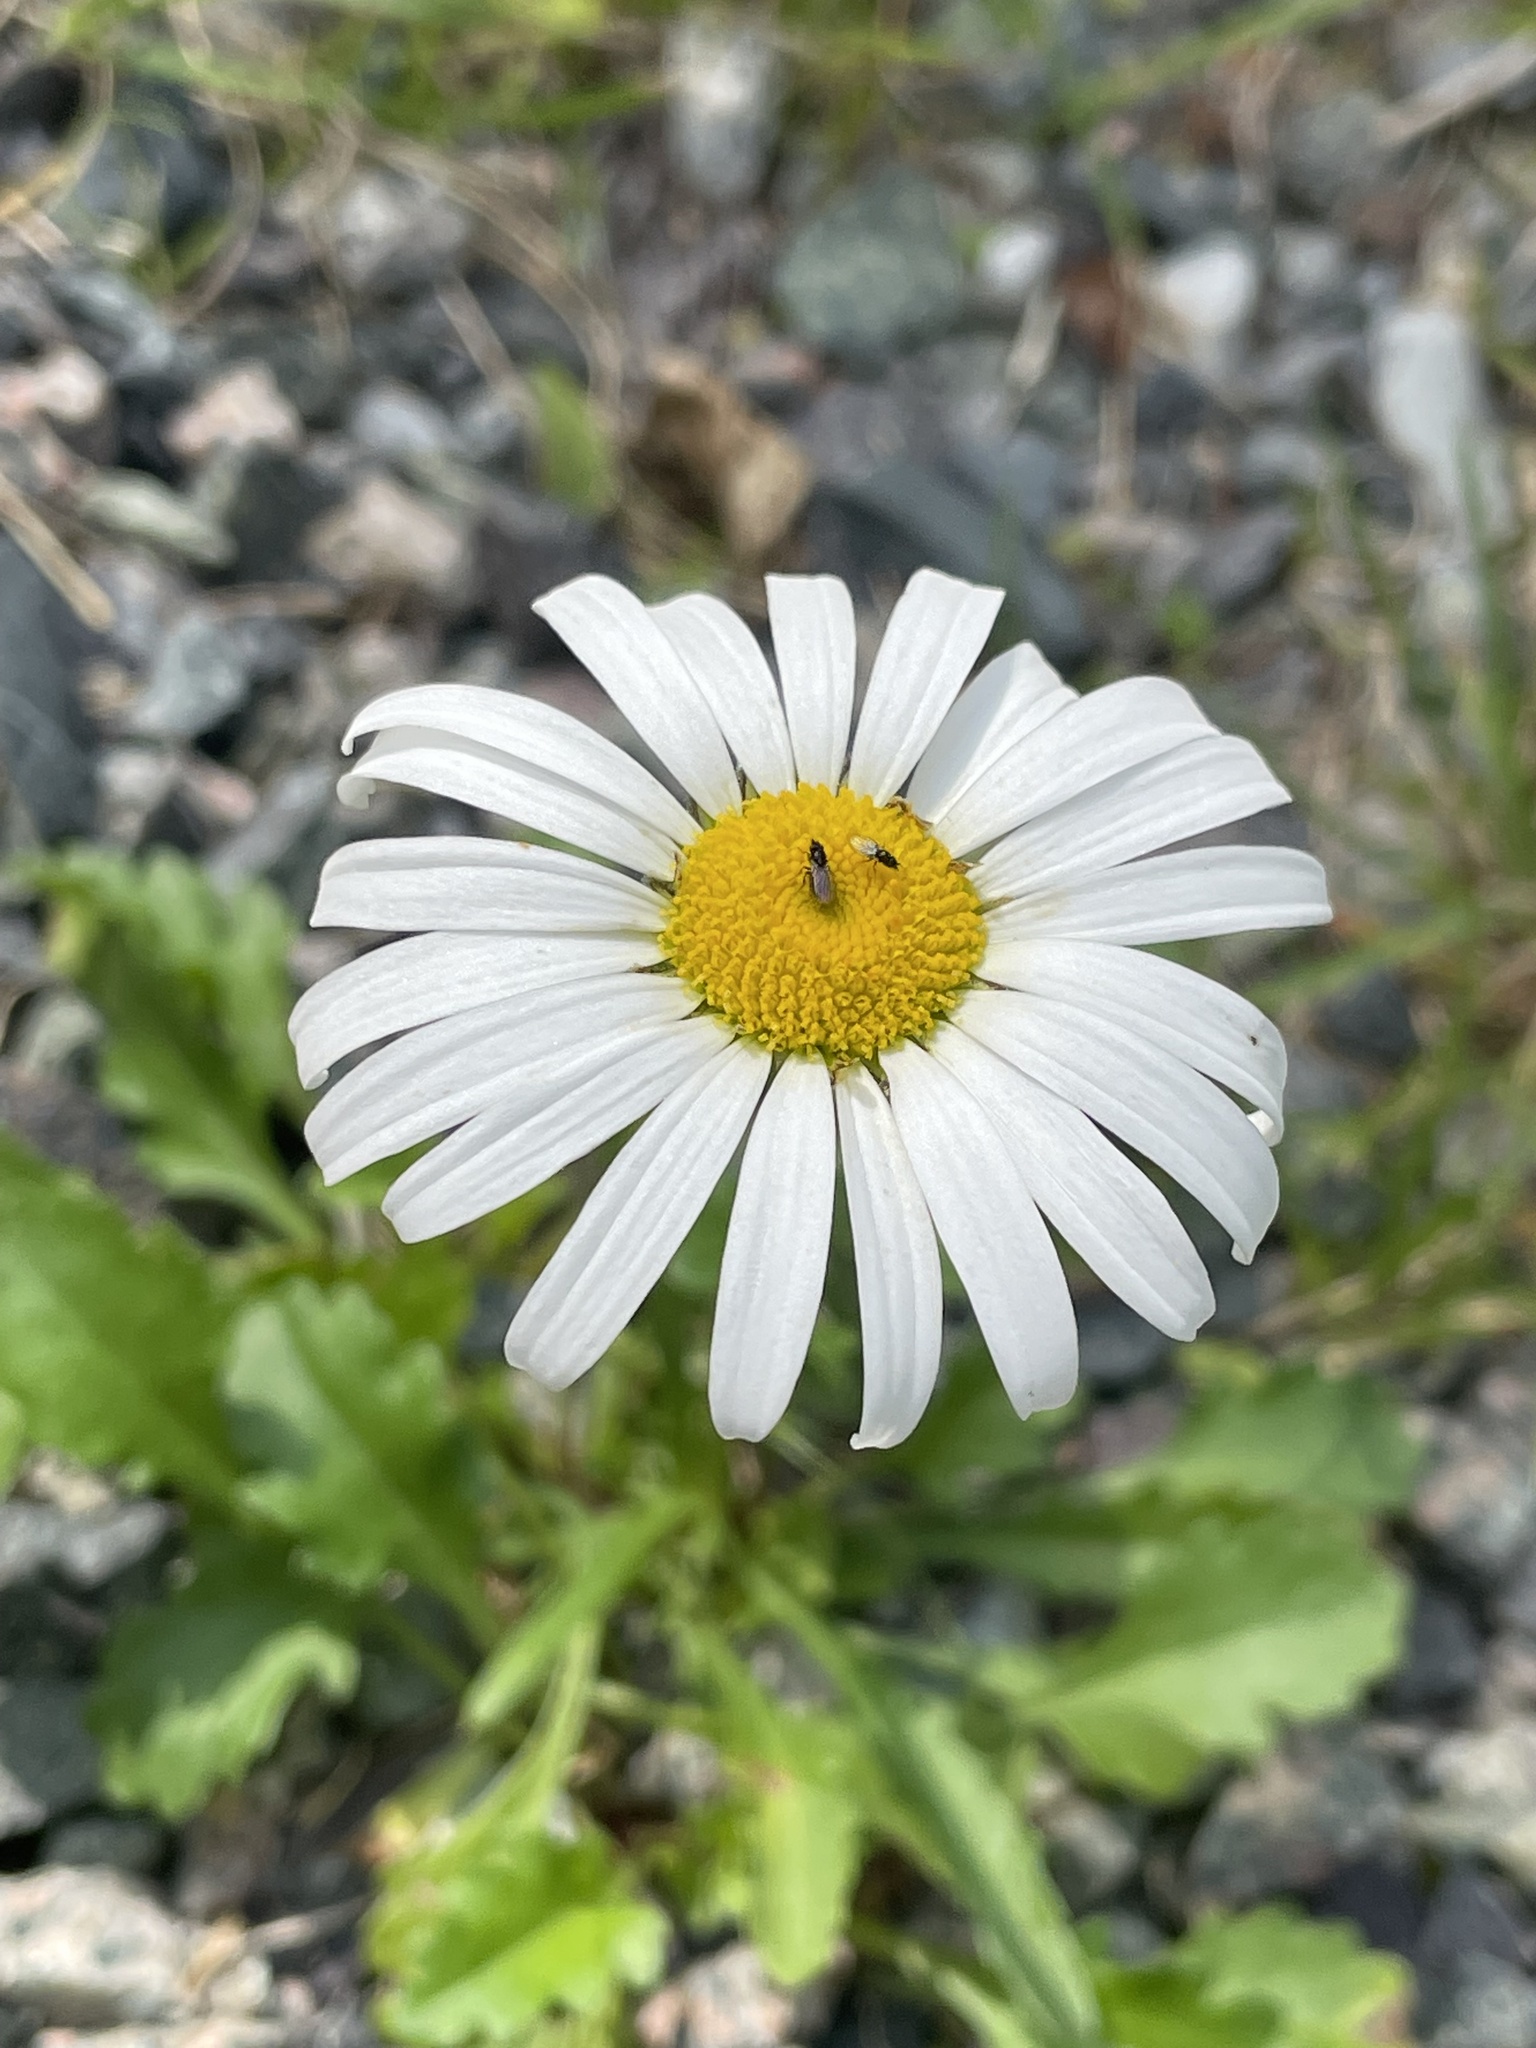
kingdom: Plantae
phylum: Tracheophyta
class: Magnoliopsida
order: Asterales
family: Asteraceae
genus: Leucanthemum
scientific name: Leucanthemum vulgare
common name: Oxeye daisy
